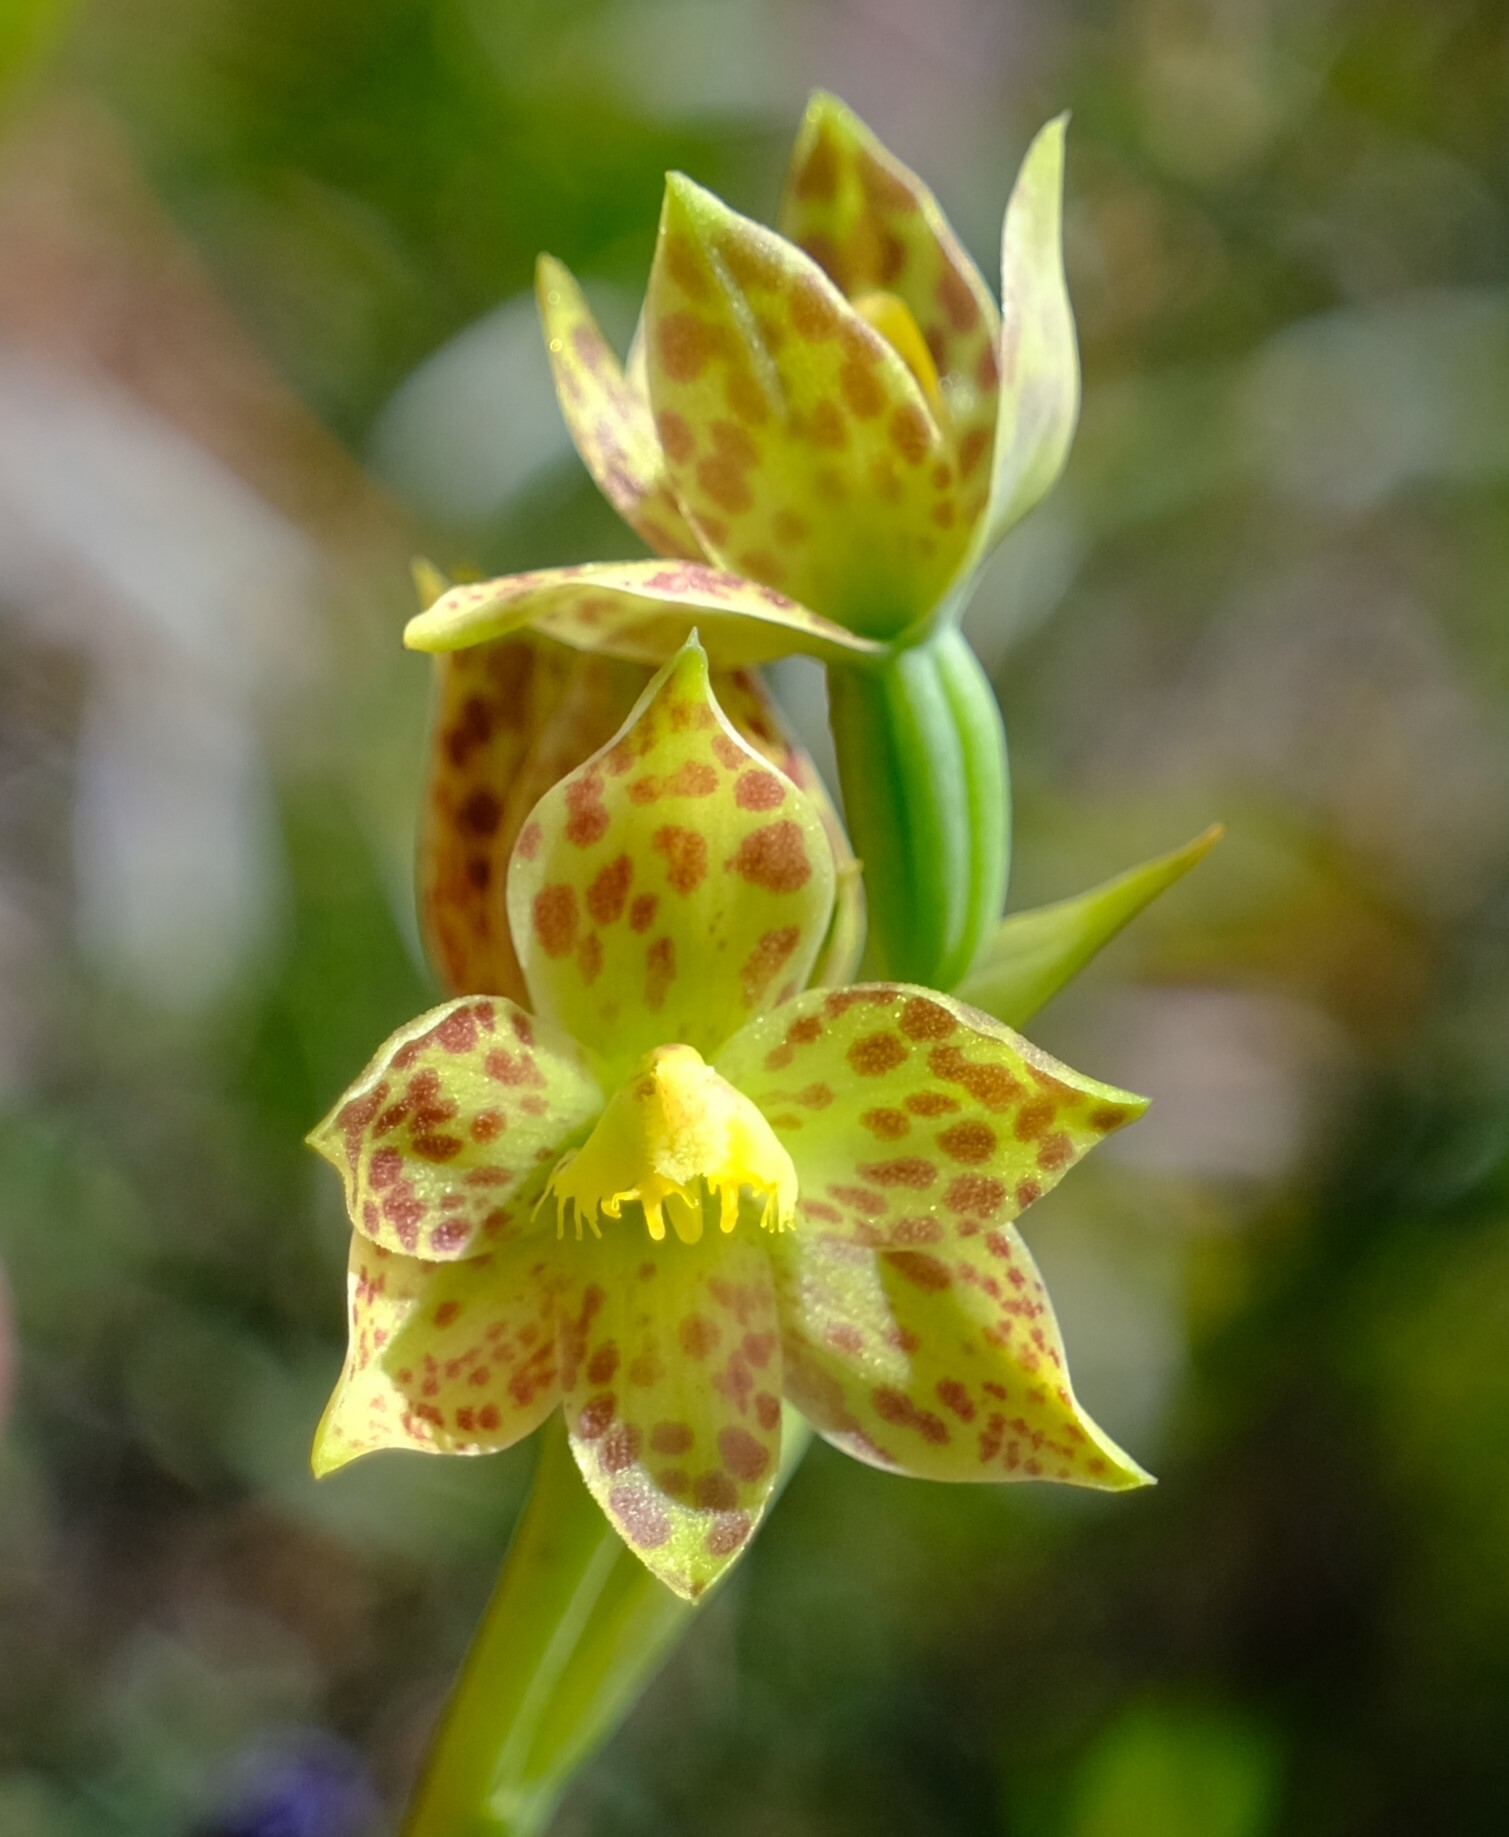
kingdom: Plantae
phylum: Tracheophyta
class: Liliopsida
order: Asparagales
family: Orchidaceae
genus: Thelymitra
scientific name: Thelymitra benthamiana
